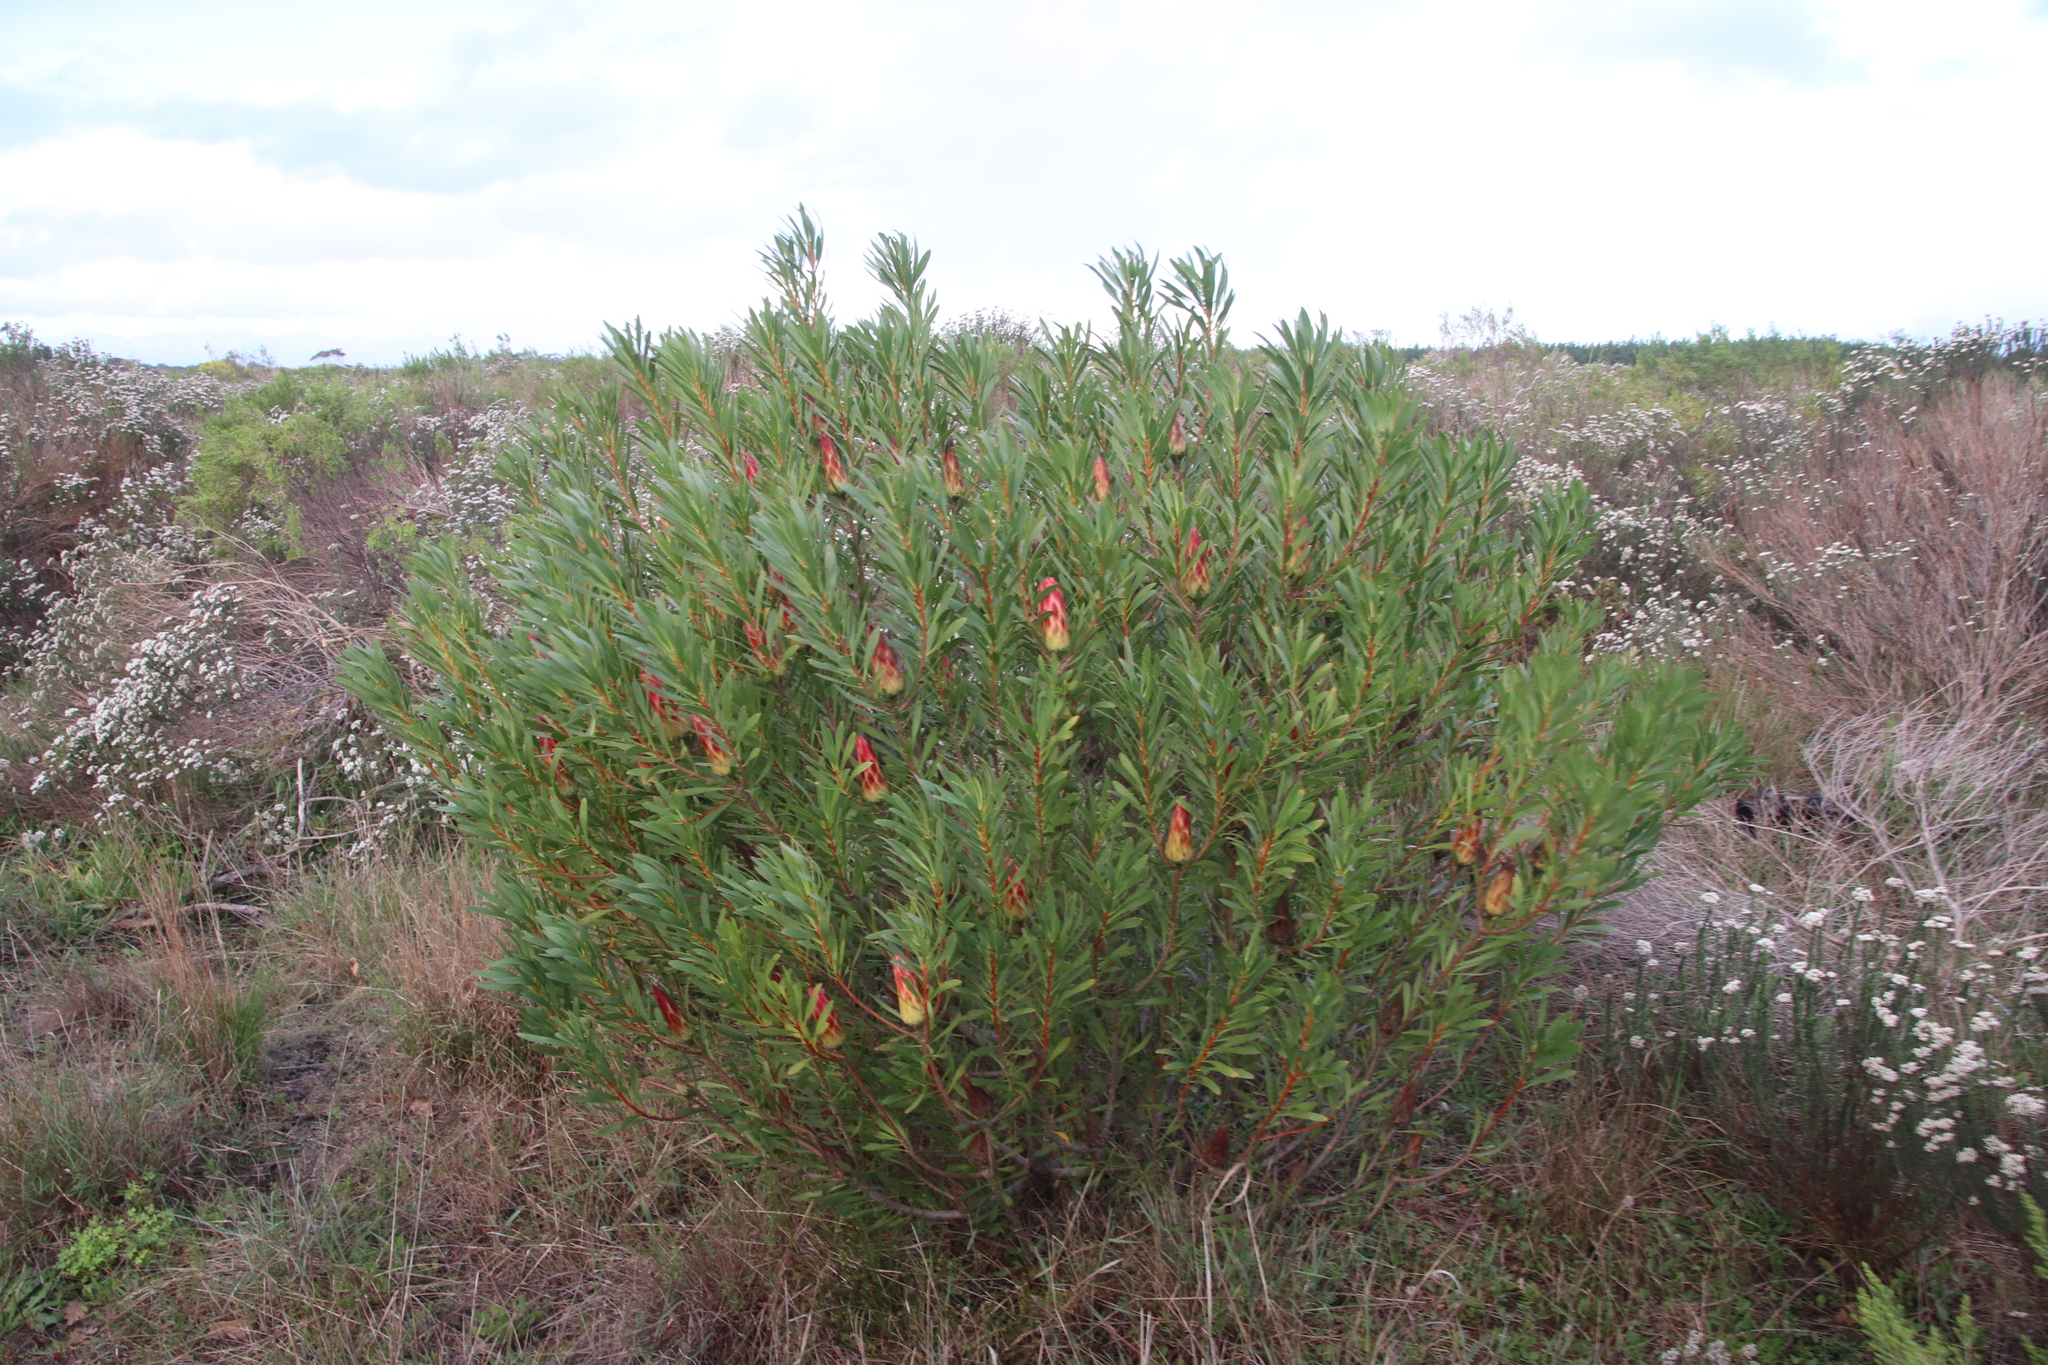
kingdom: Plantae
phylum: Tracheophyta
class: Magnoliopsida
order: Proteales
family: Proteaceae
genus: Protea
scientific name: Protea repens
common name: Sugarbush
